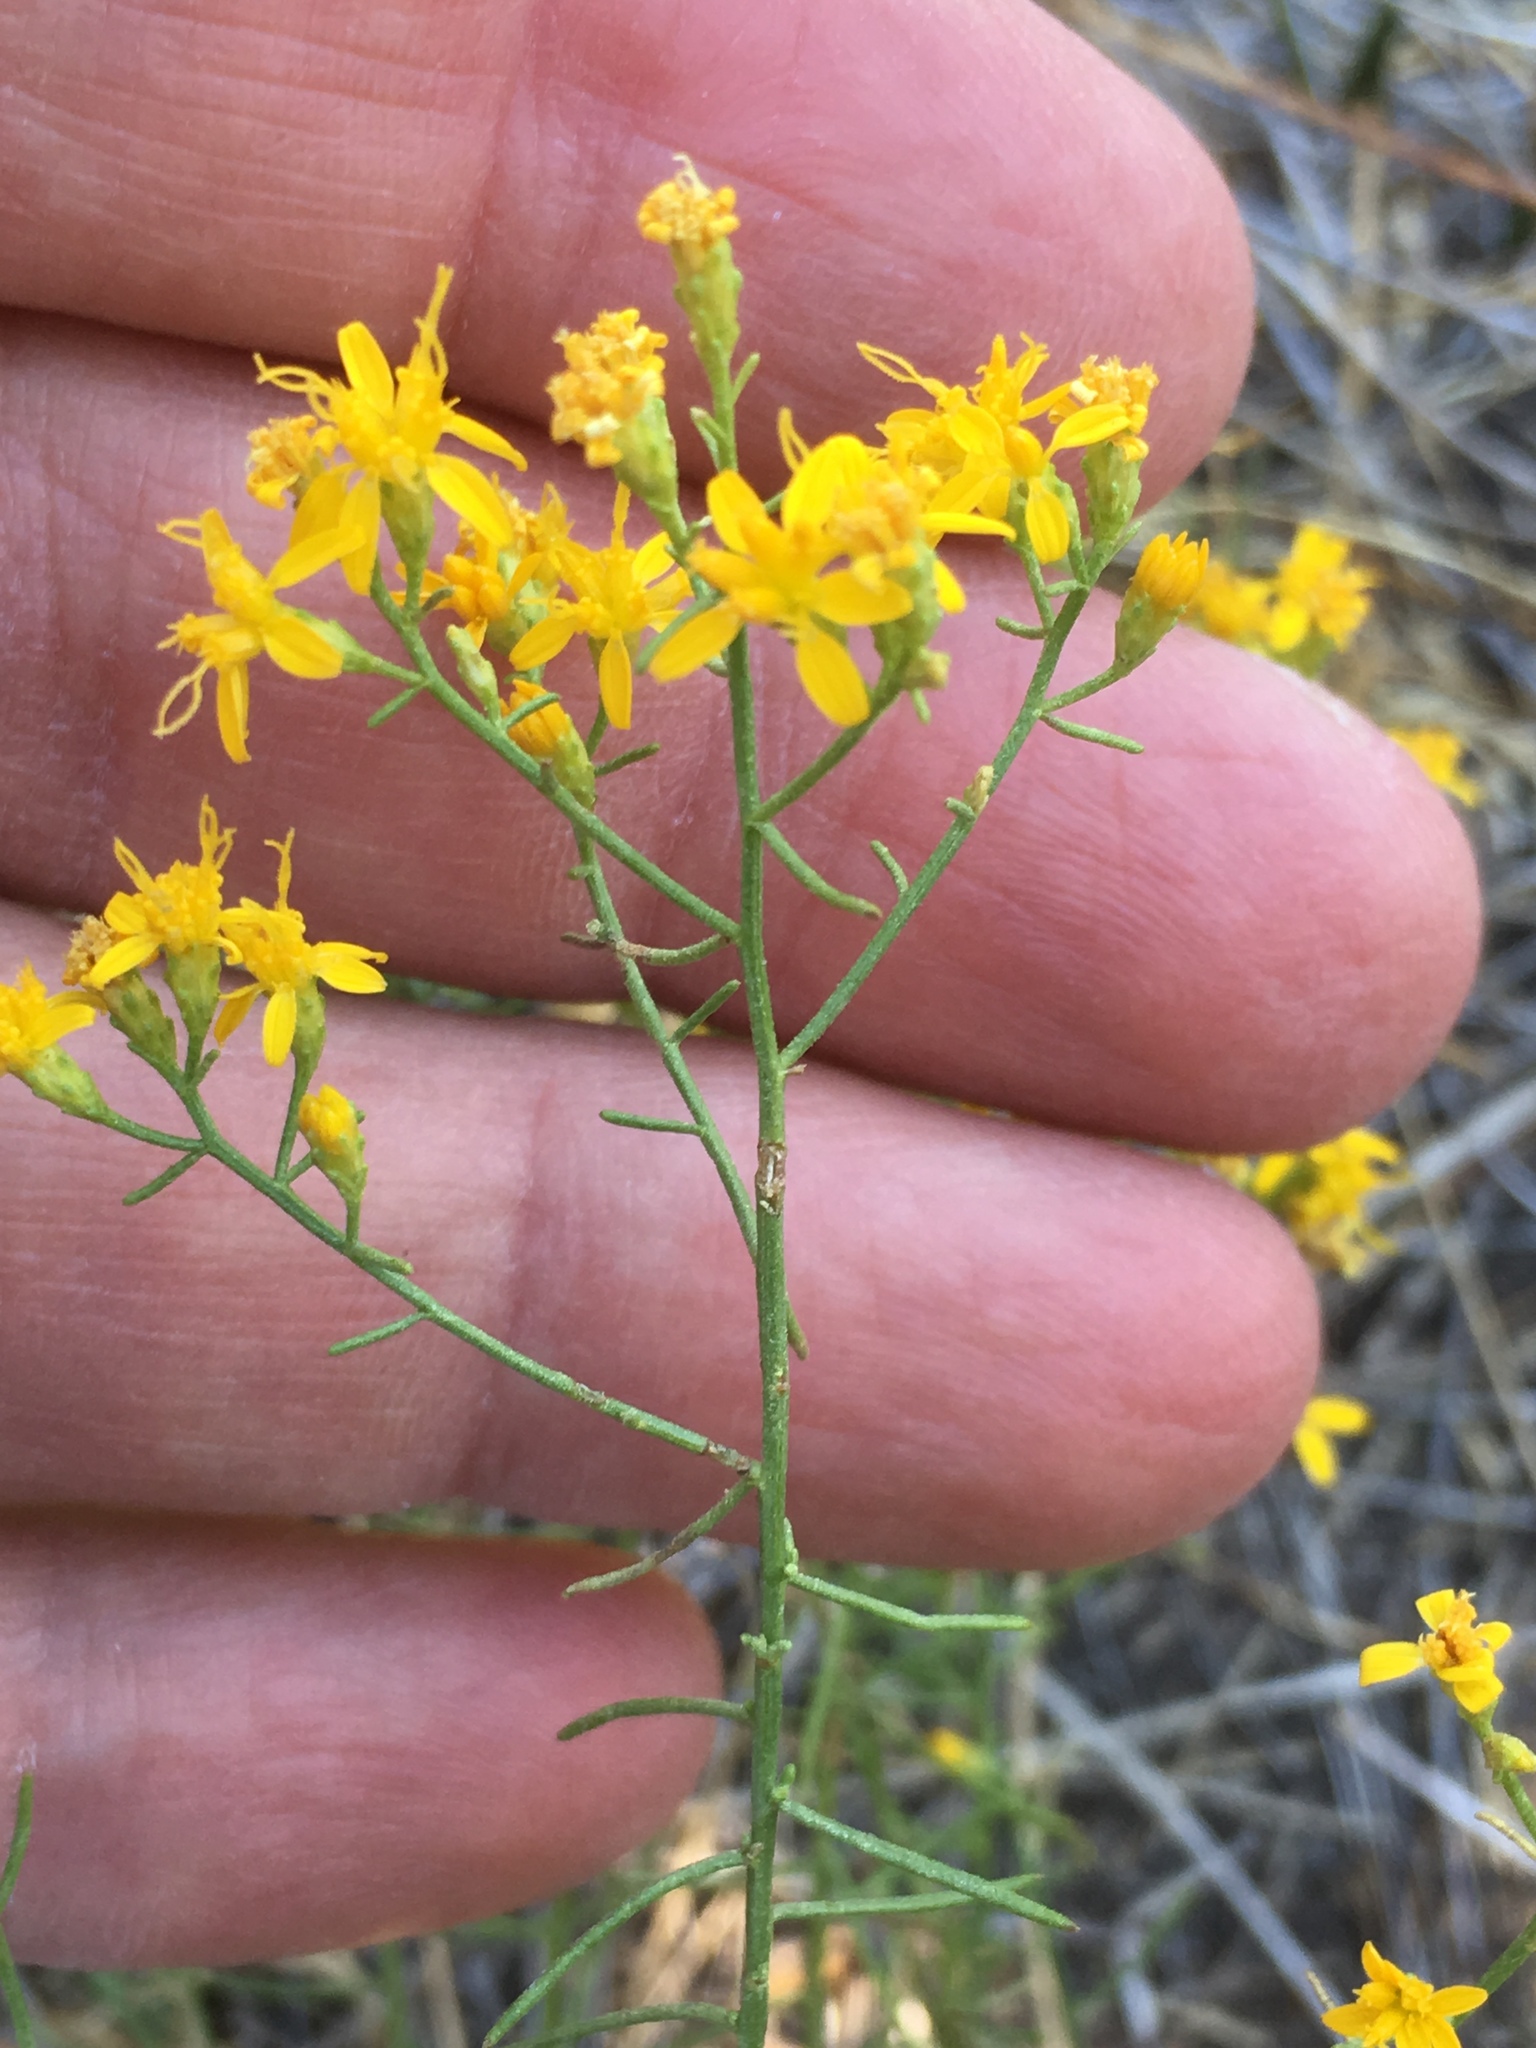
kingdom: Plantae
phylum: Tracheophyta
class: Magnoliopsida
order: Asterales
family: Asteraceae
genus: Gutierrezia
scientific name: Gutierrezia sarothrae
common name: Broom snakeweed
